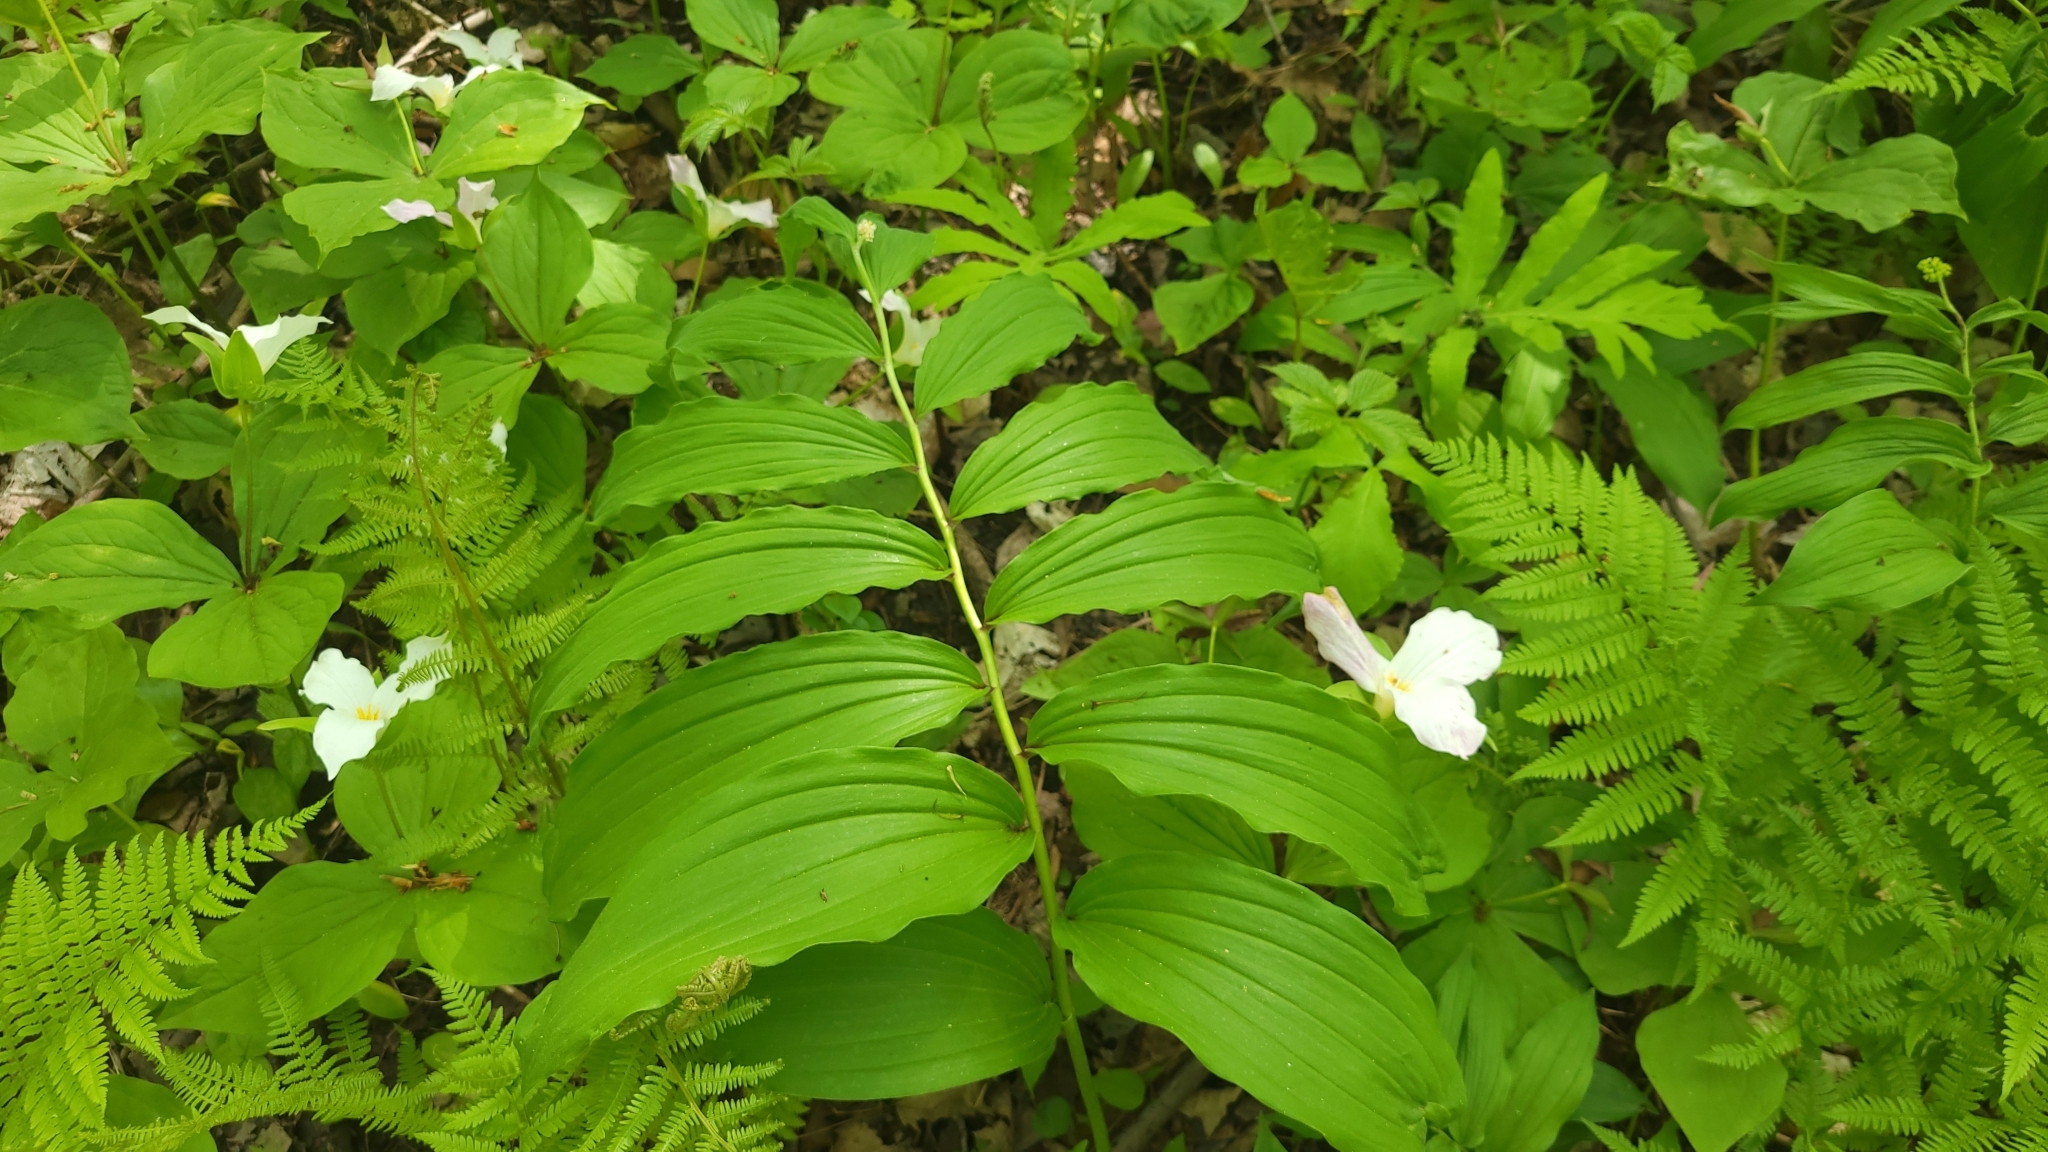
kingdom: Plantae
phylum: Tracheophyta
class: Liliopsida
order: Asparagales
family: Asparagaceae
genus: Maianthemum
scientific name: Maianthemum racemosum
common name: False spikenard
